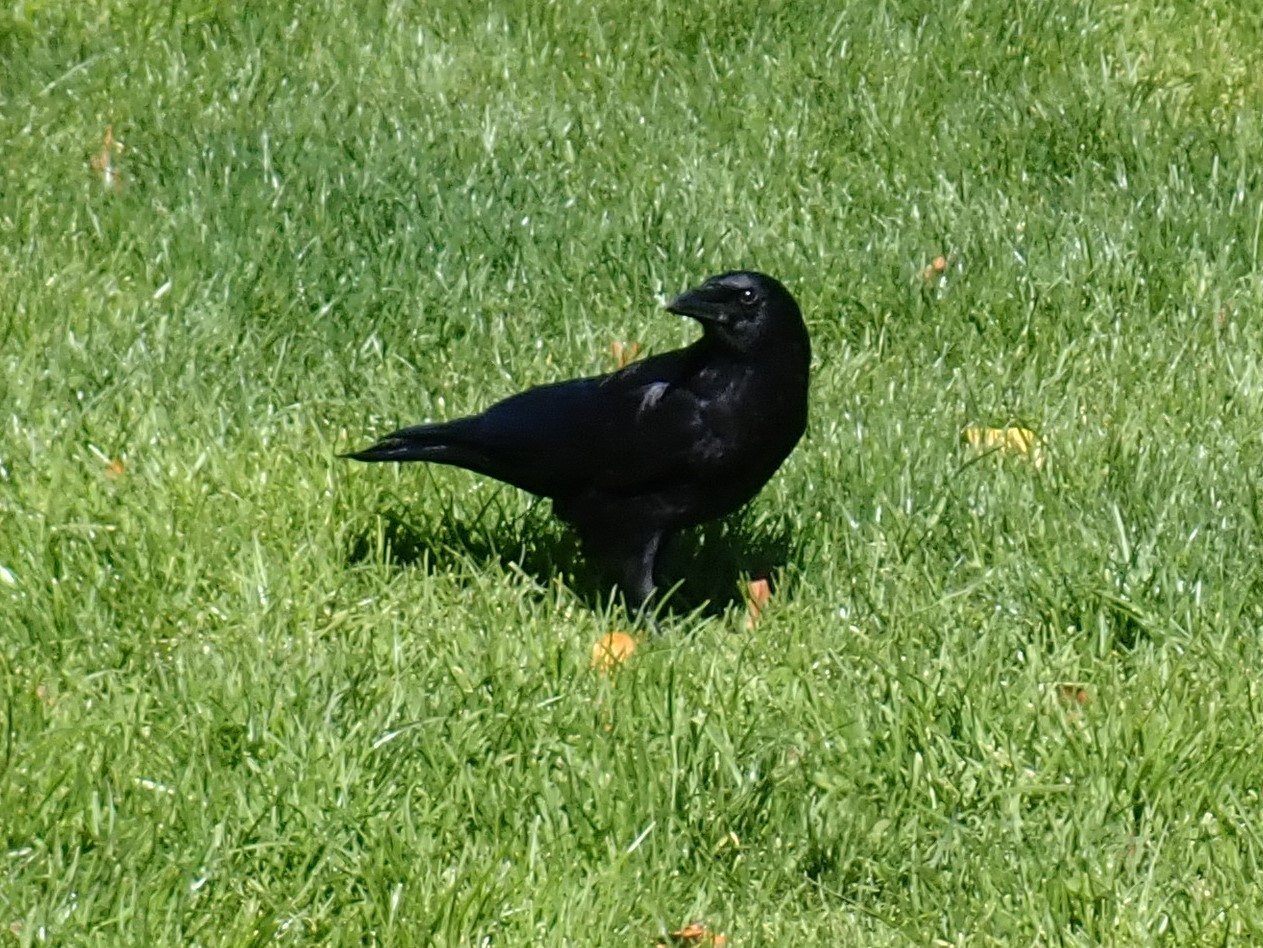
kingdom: Animalia
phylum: Chordata
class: Aves
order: Passeriformes
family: Corvidae
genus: Corvus
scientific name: Corvus brachyrhynchos
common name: American crow
